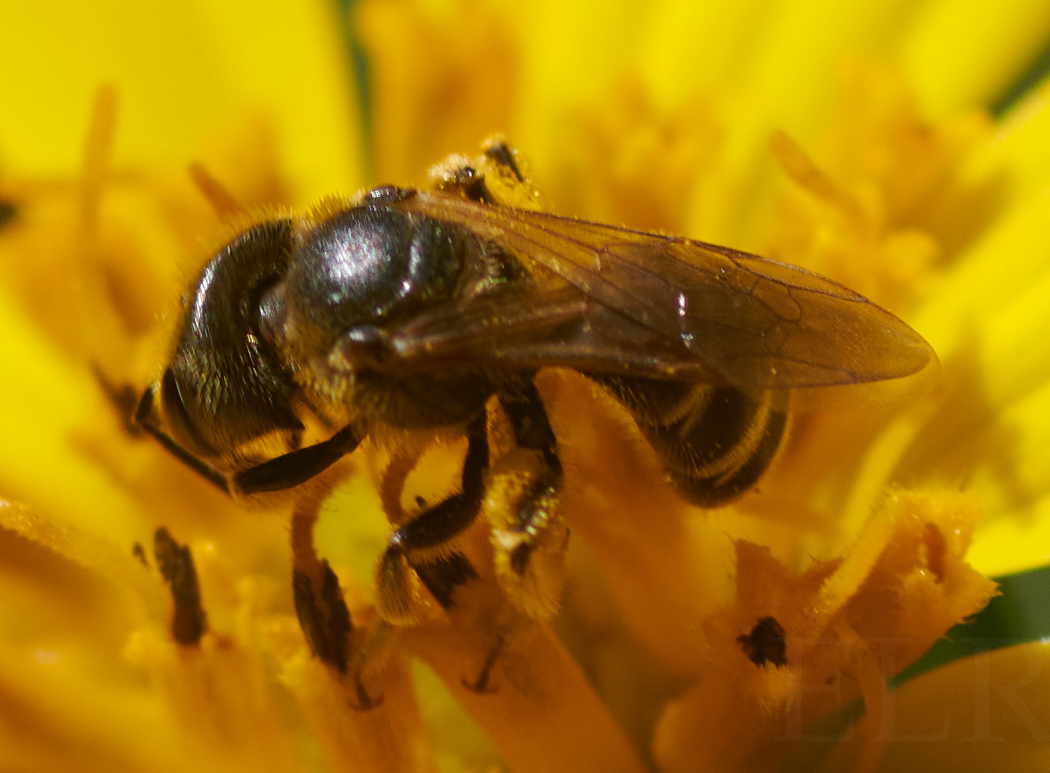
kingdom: Animalia
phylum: Arthropoda
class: Insecta
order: Hymenoptera
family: Halictidae
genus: Halictus
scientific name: Halictus ligatus
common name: Ligated furrow bee
